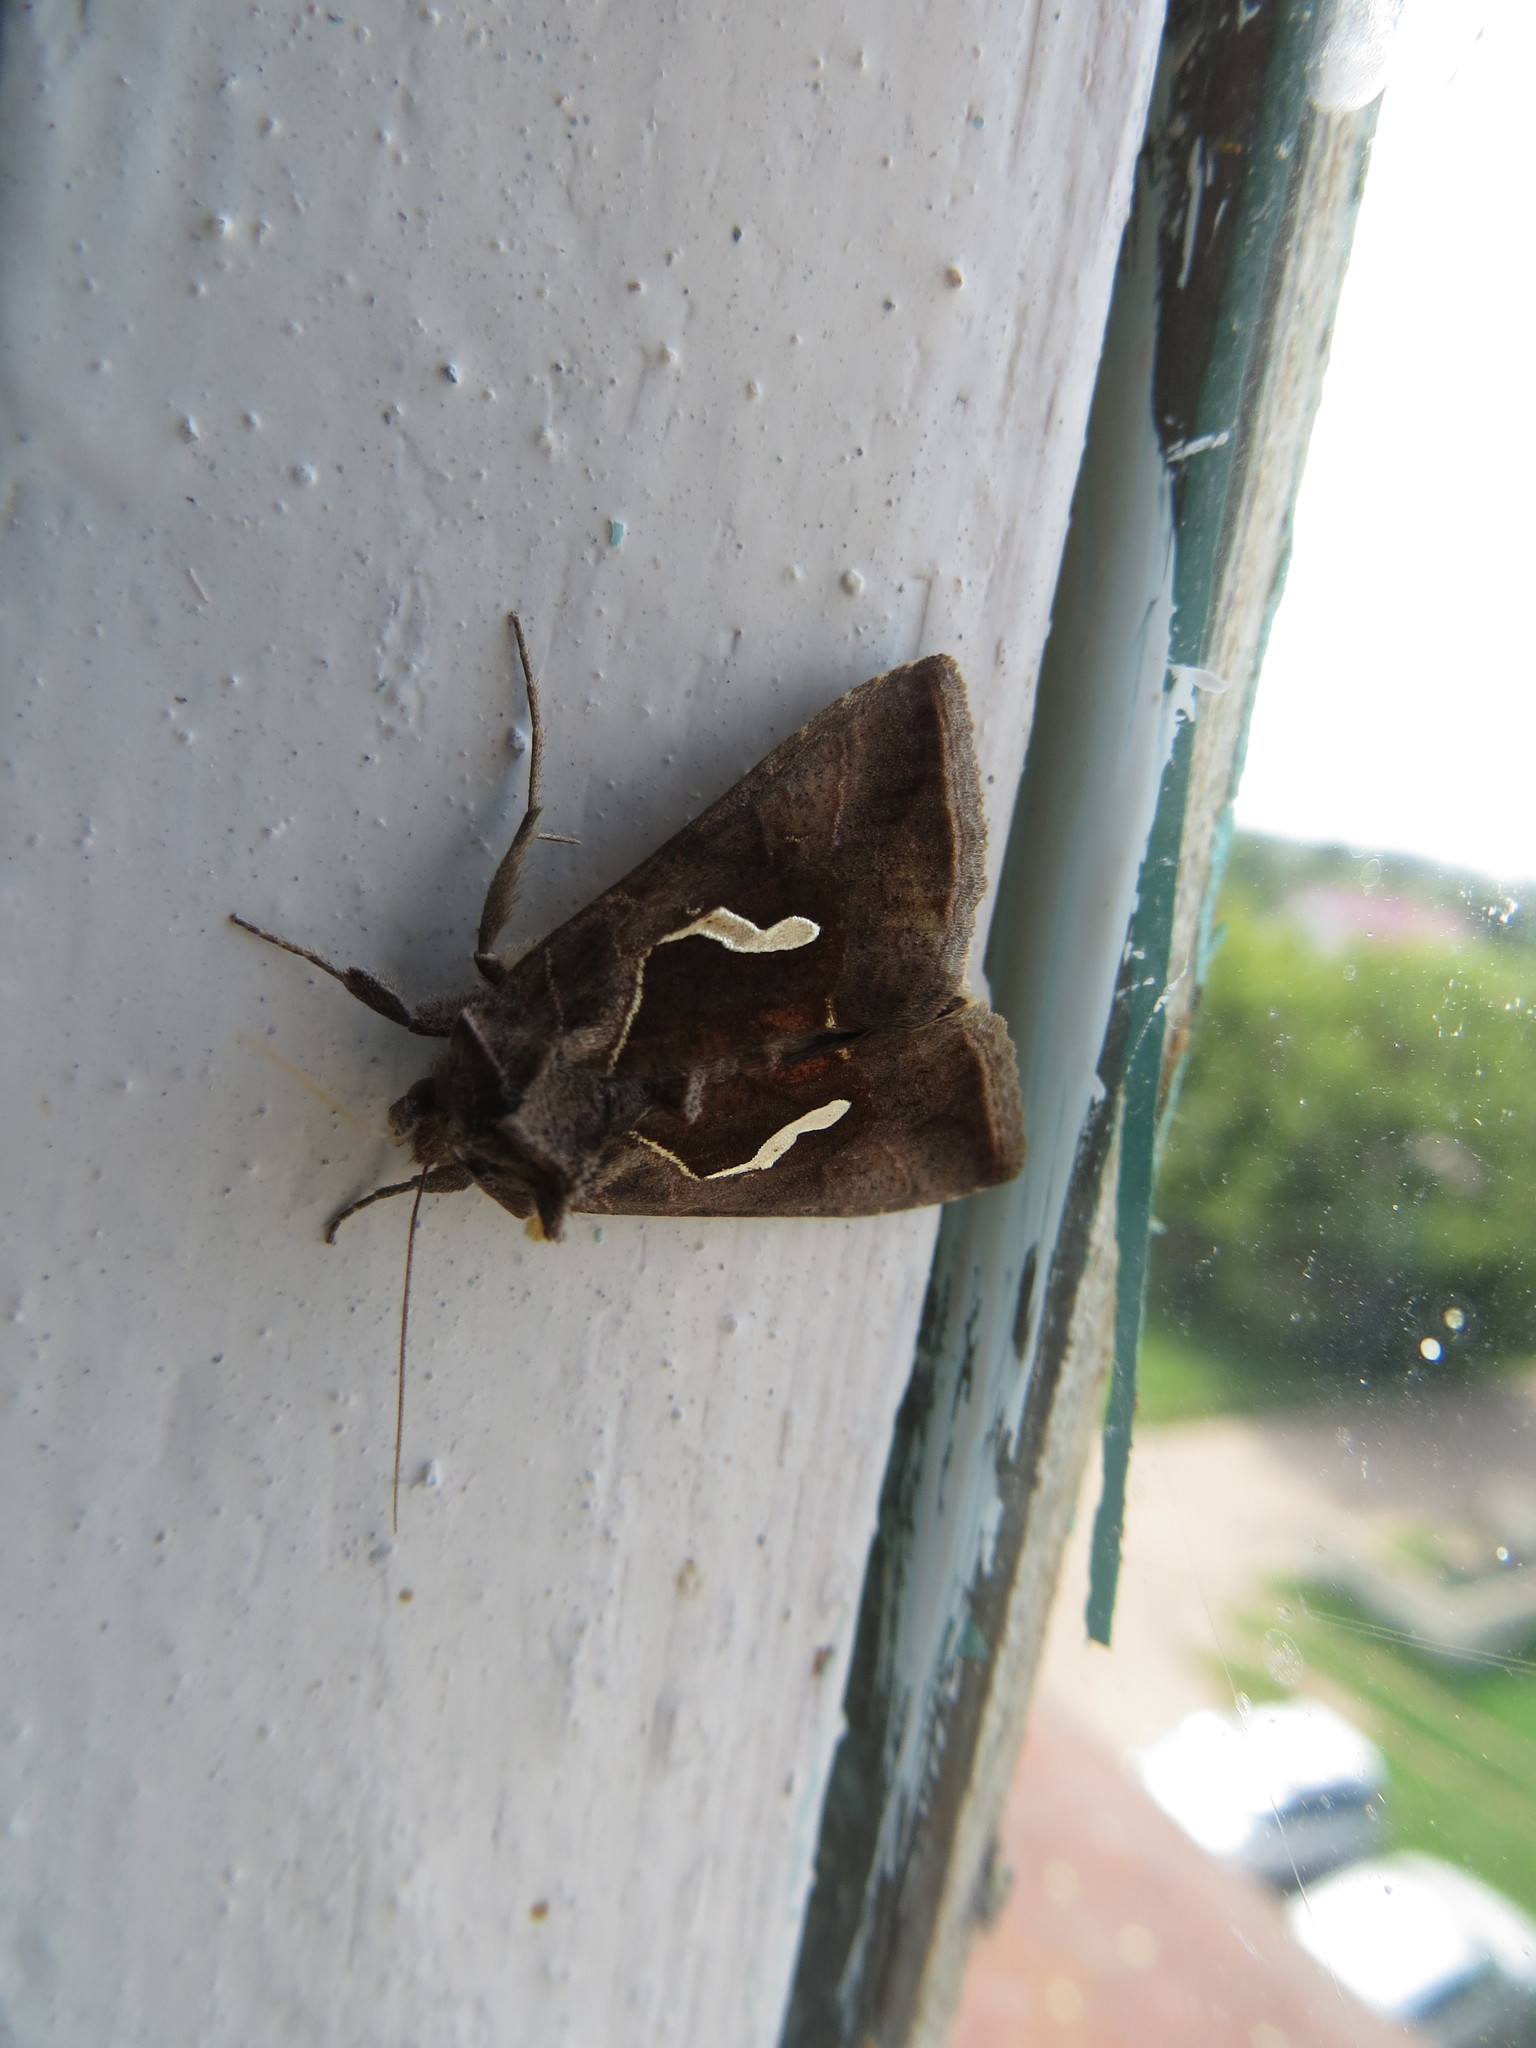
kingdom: Animalia
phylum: Arthropoda
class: Insecta
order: Lepidoptera
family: Noctuidae
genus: Macdunnoughia
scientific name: Macdunnoughia confusa
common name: Dewick's plusia
